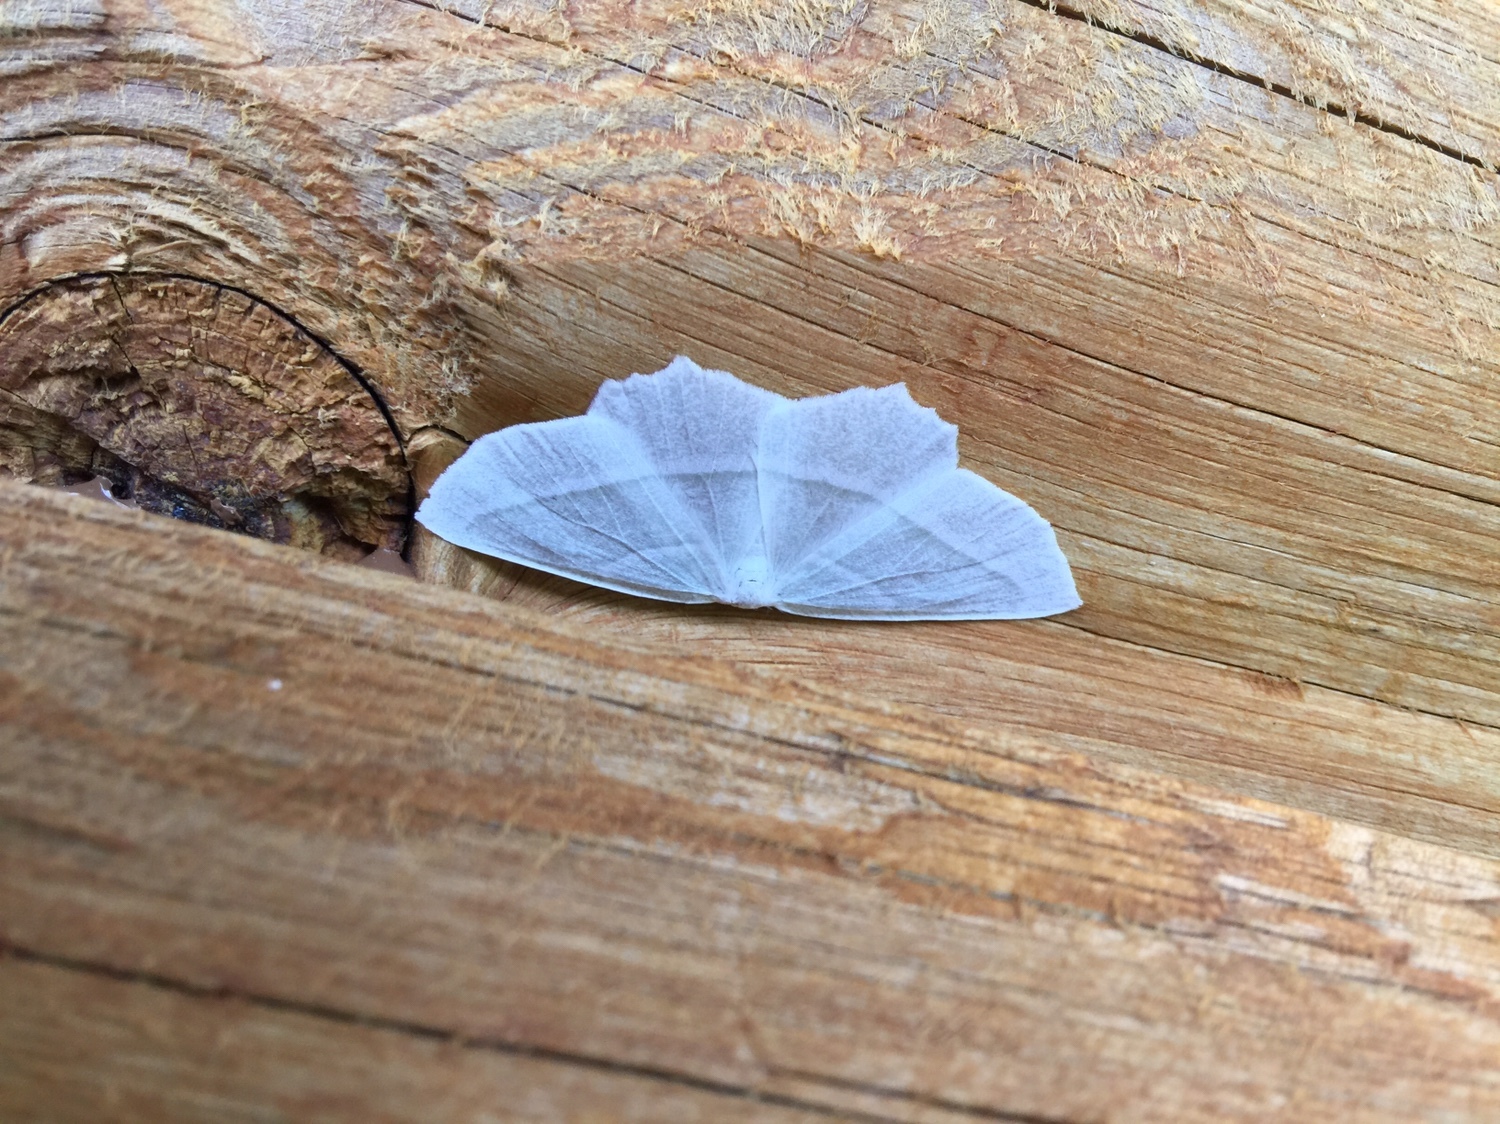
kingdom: Animalia
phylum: Arthropoda
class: Insecta
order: Lepidoptera
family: Geometridae
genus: Campaea
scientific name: Campaea perlata
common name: Fringed looper
